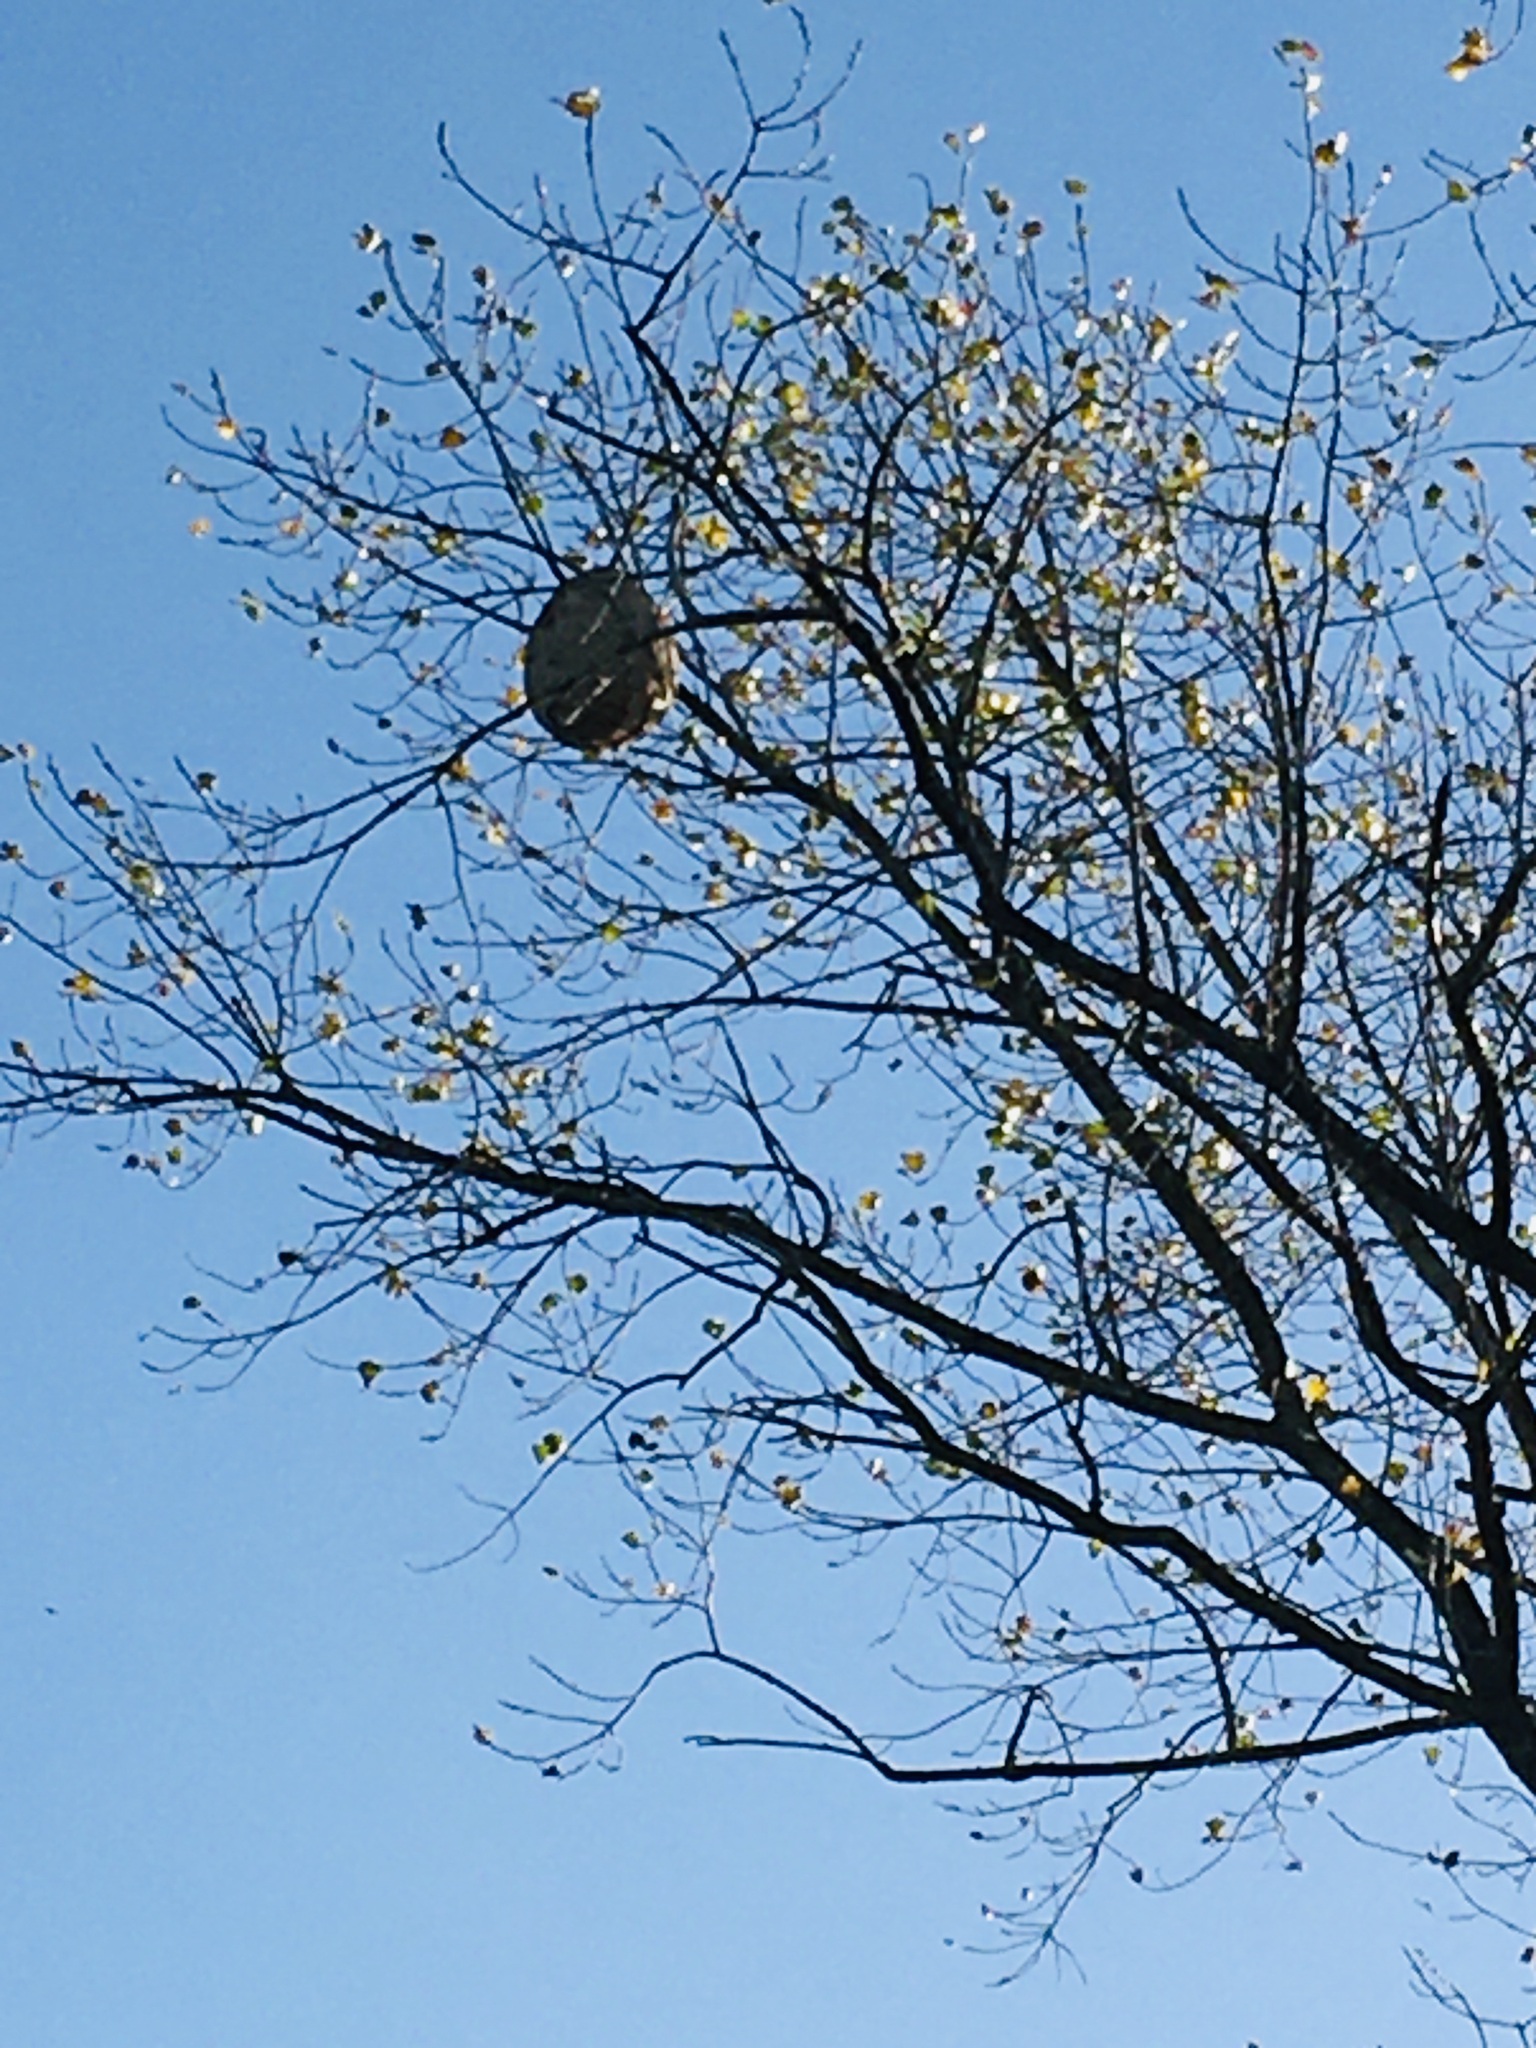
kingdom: Animalia
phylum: Arthropoda
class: Insecta
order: Hymenoptera
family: Vespidae
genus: Vespa
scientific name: Vespa velutina
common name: Asian hornet
